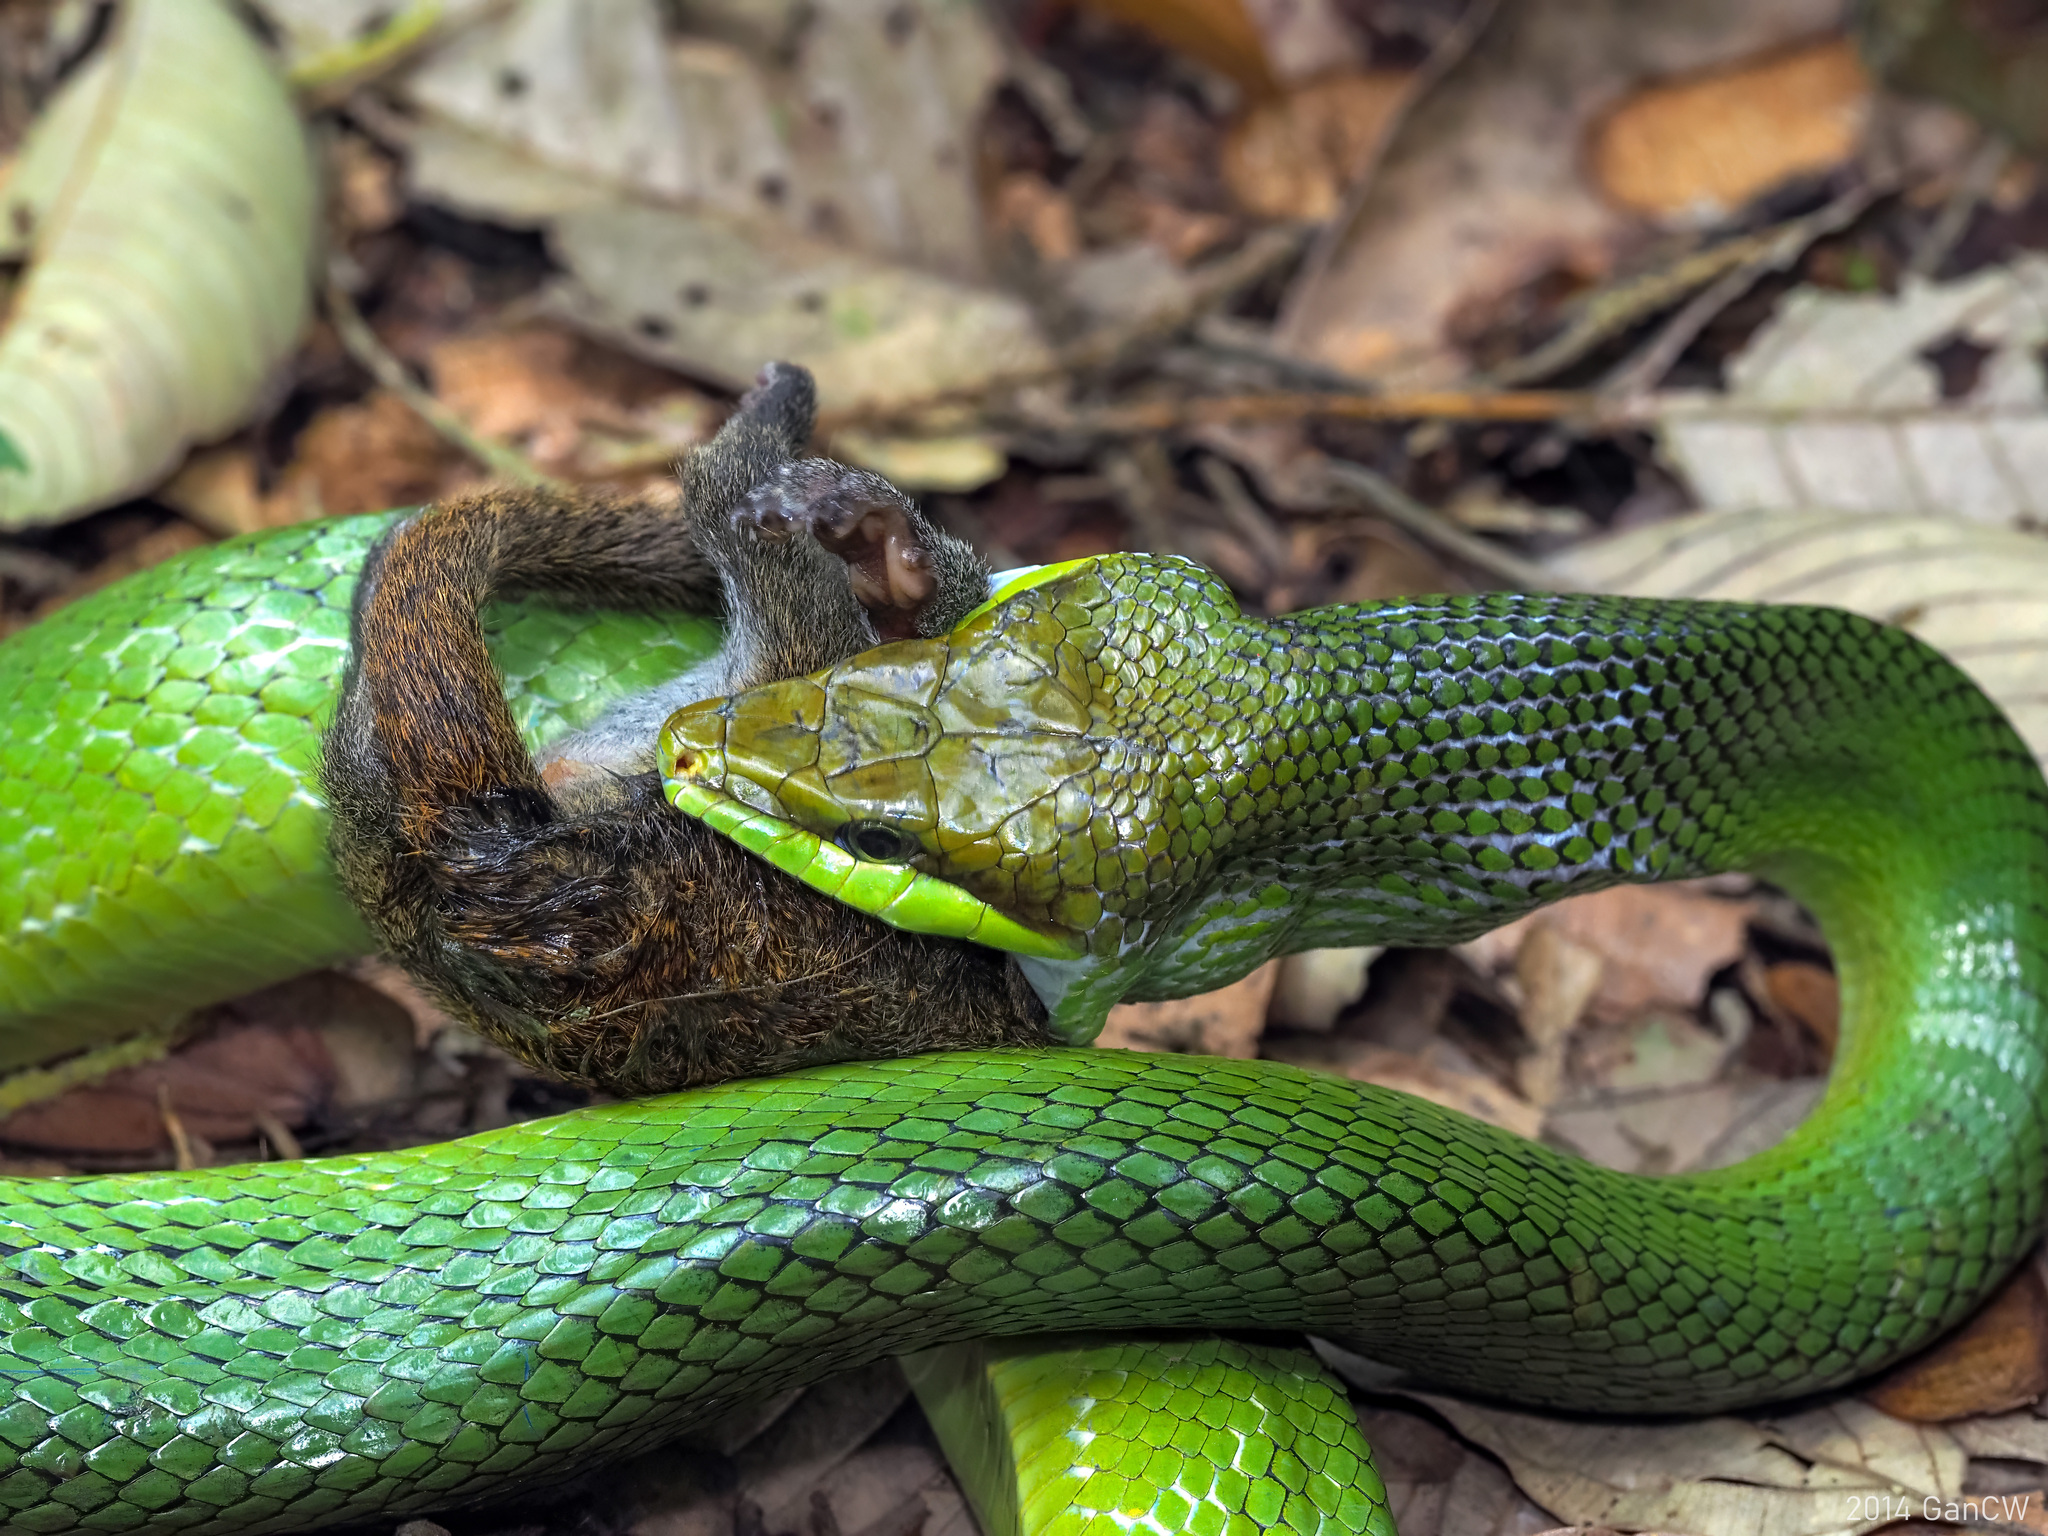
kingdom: Animalia
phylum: Chordata
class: Squamata
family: Colubridae
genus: Gonyosoma
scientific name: Gonyosoma oxycephalum
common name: Red-tailed racer
